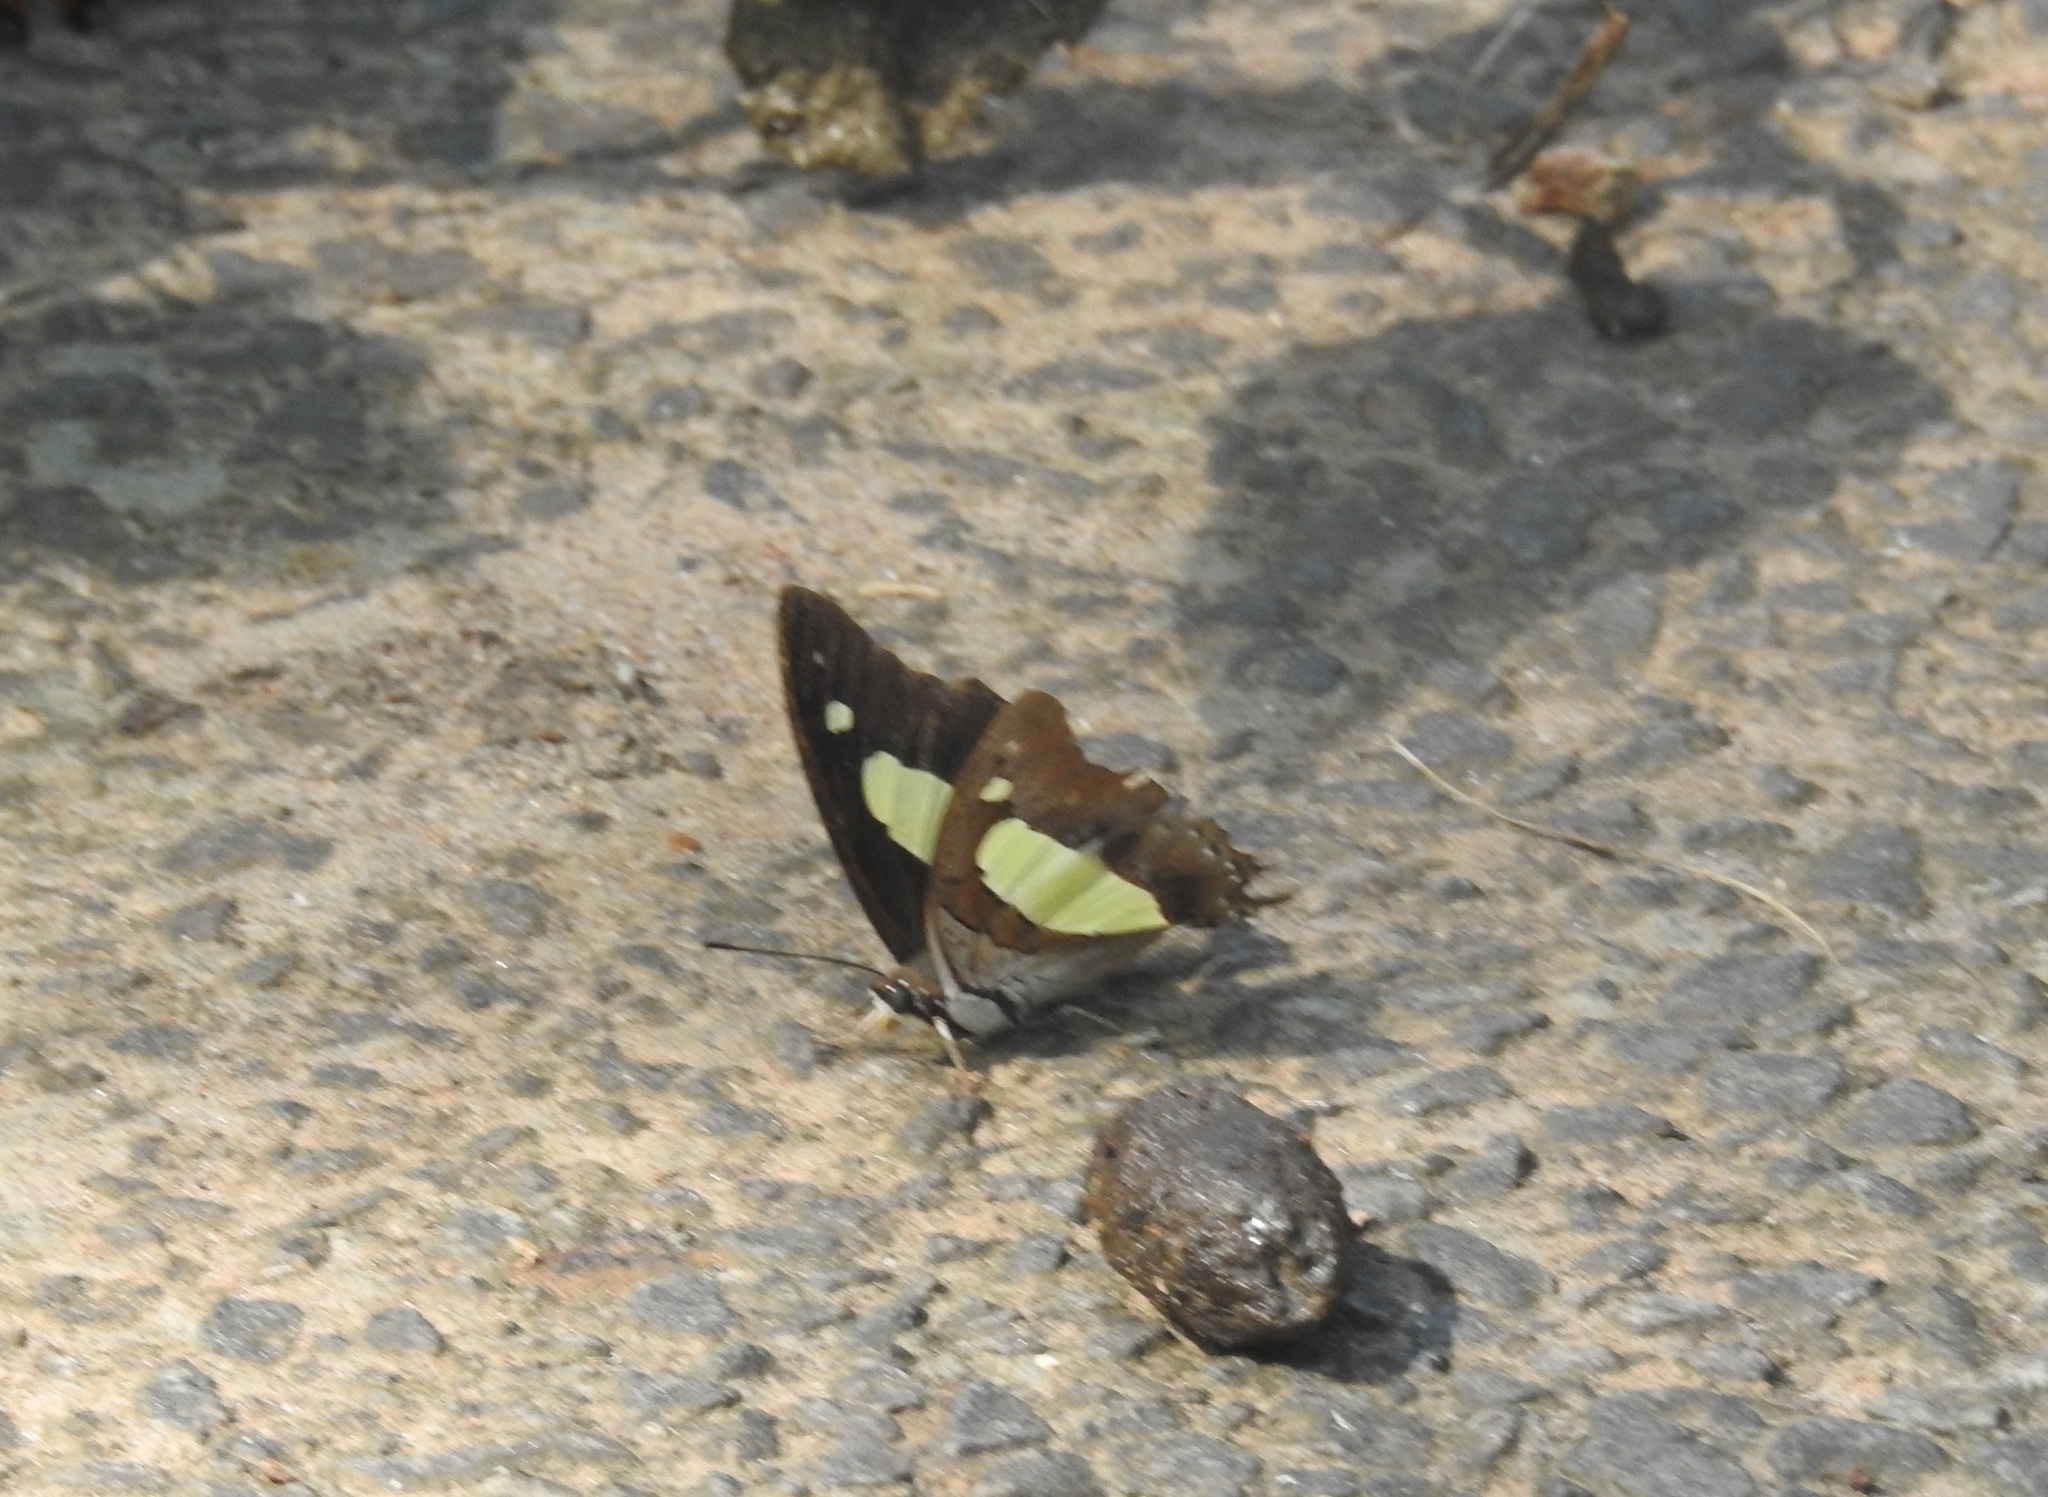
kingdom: Animalia
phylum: Arthropoda
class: Insecta
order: Lepidoptera
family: Nymphalidae
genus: Polyura
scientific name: Polyura
